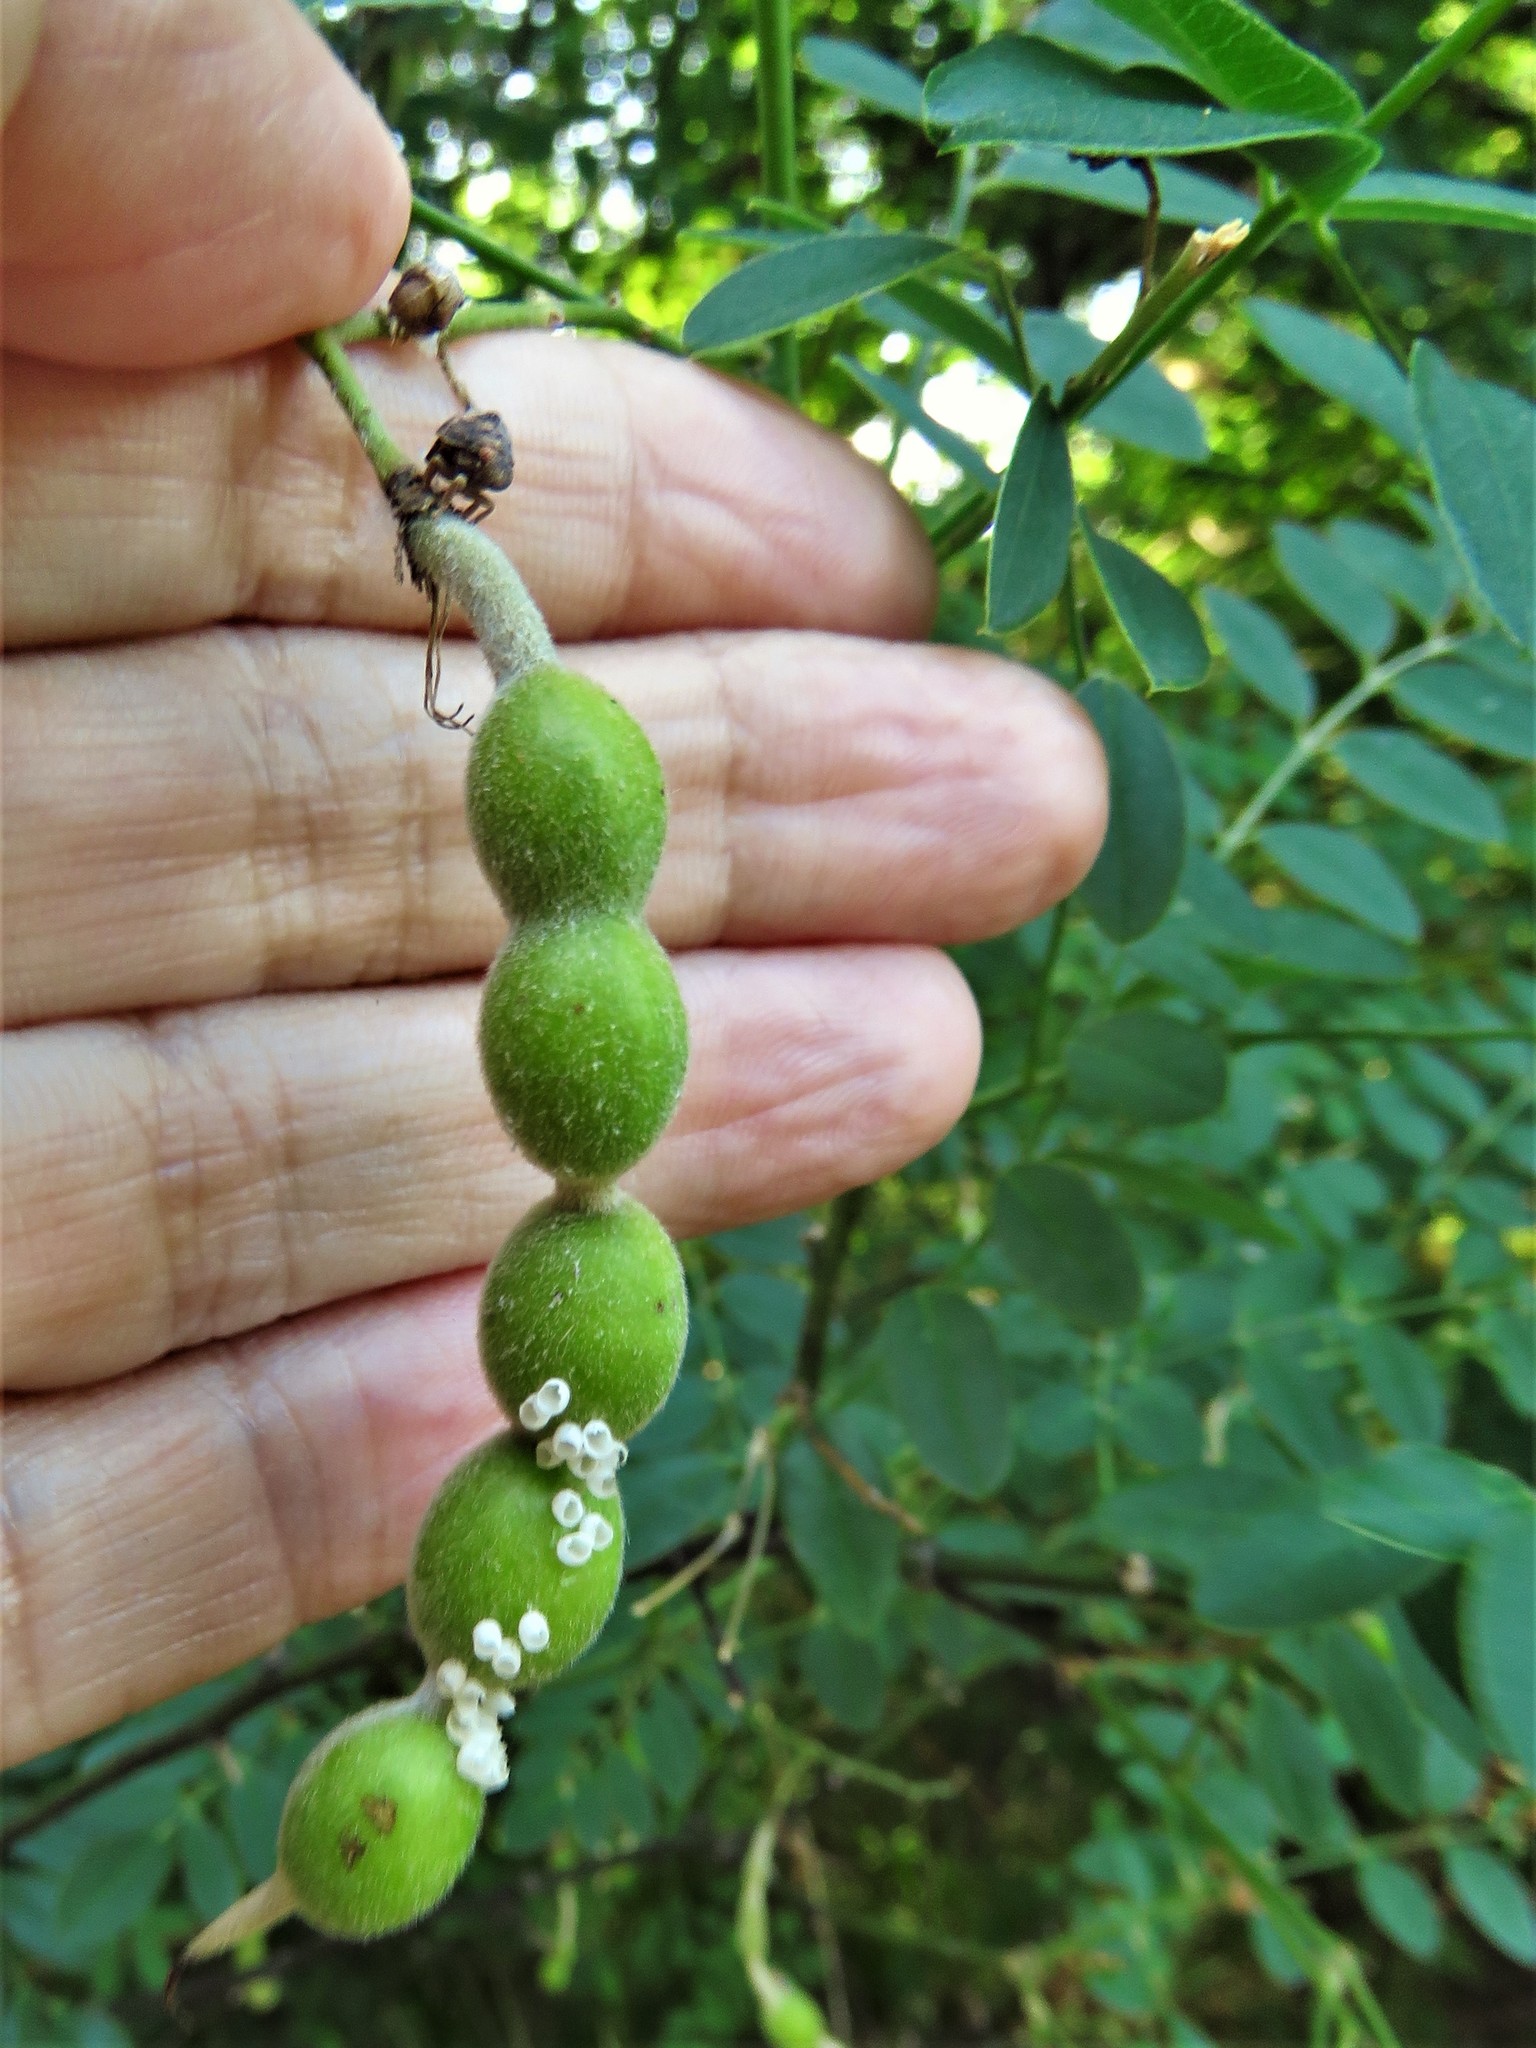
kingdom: Plantae
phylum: Tracheophyta
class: Magnoliopsida
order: Fabales
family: Fabaceae
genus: Styphnolobium
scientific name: Styphnolobium affine
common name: Texas sophora
